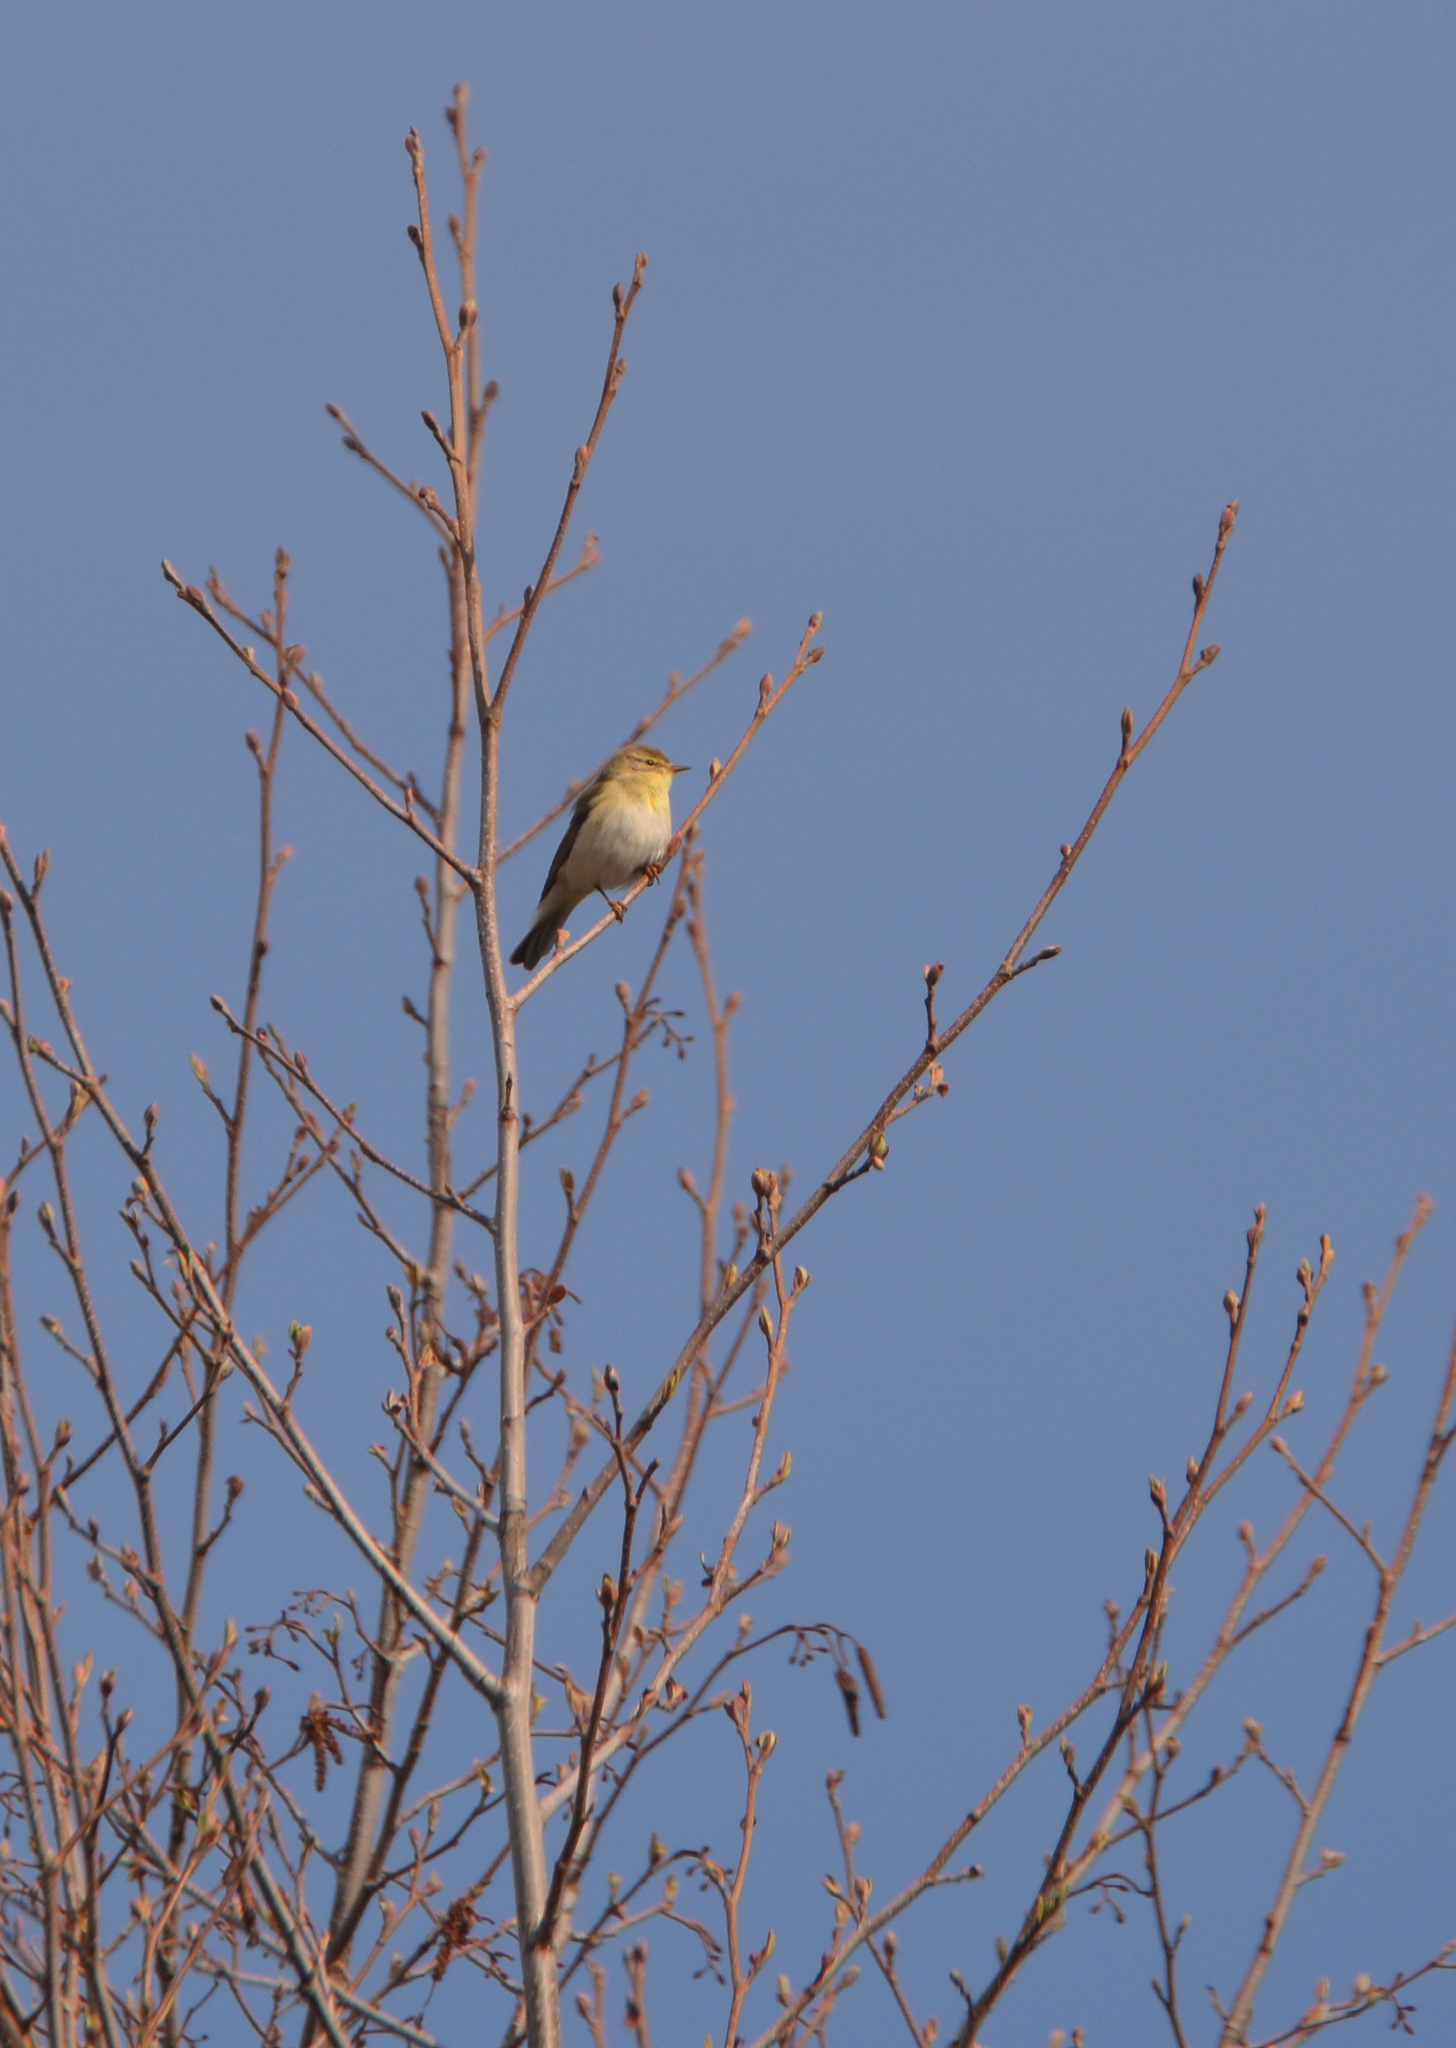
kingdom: Animalia
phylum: Chordata
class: Aves
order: Passeriformes
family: Phylloscopidae
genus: Phylloscopus
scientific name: Phylloscopus trochilus
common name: Willow warbler
